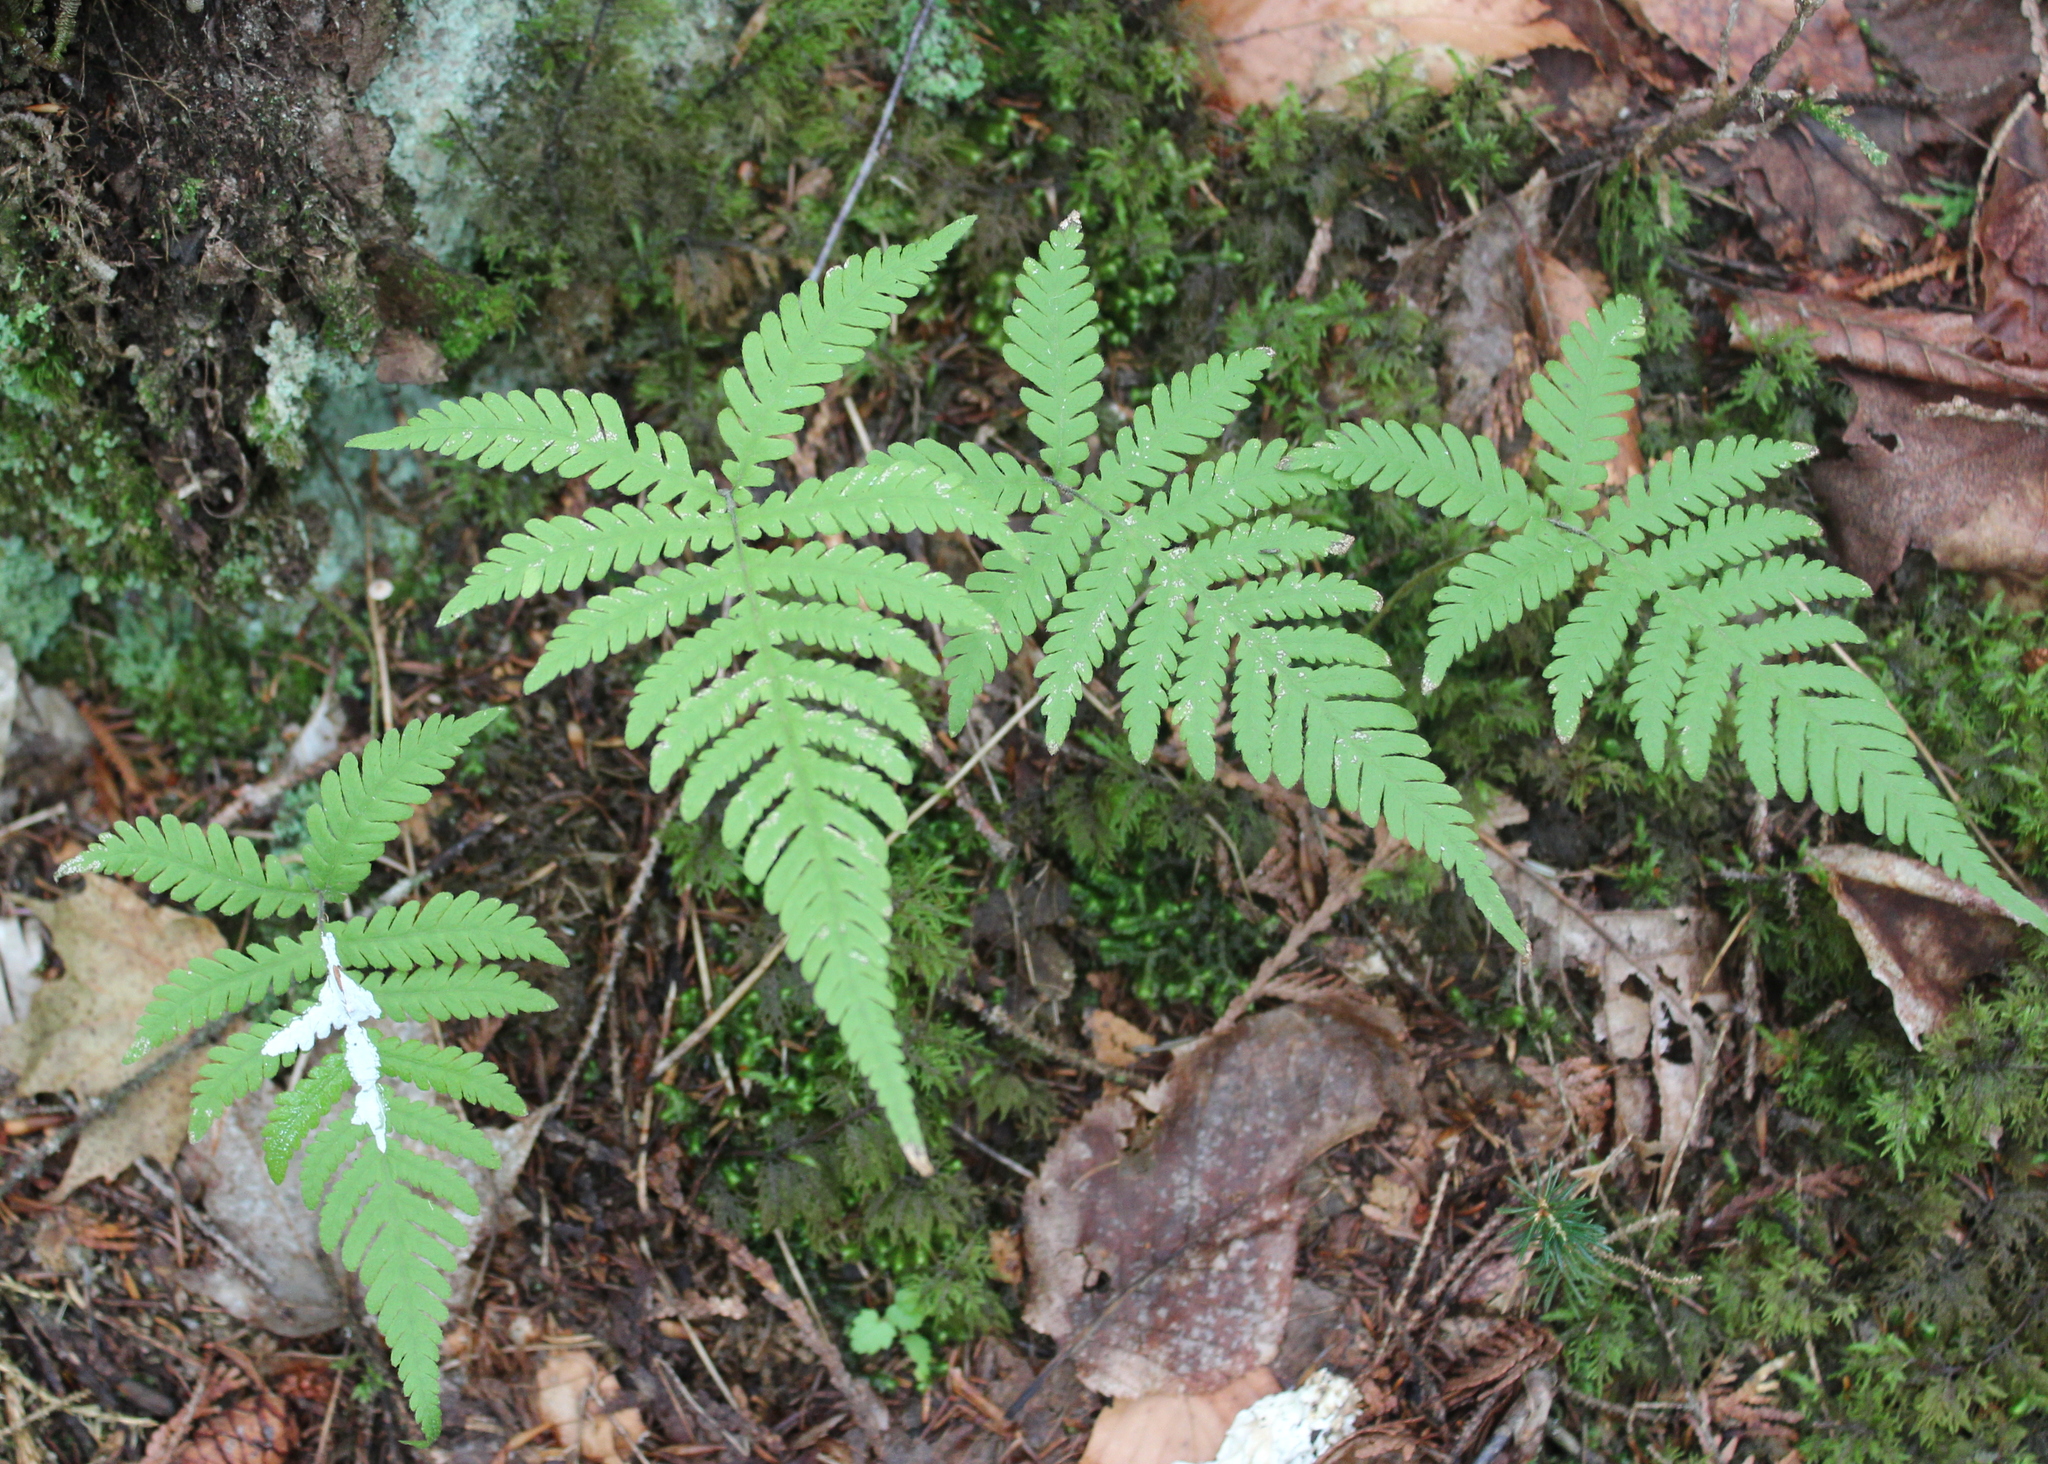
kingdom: Plantae
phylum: Tracheophyta
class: Polypodiopsida
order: Polypodiales
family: Thelypteridaceae
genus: Phegopteris
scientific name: Phegopteris connectilis
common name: Beech fern
